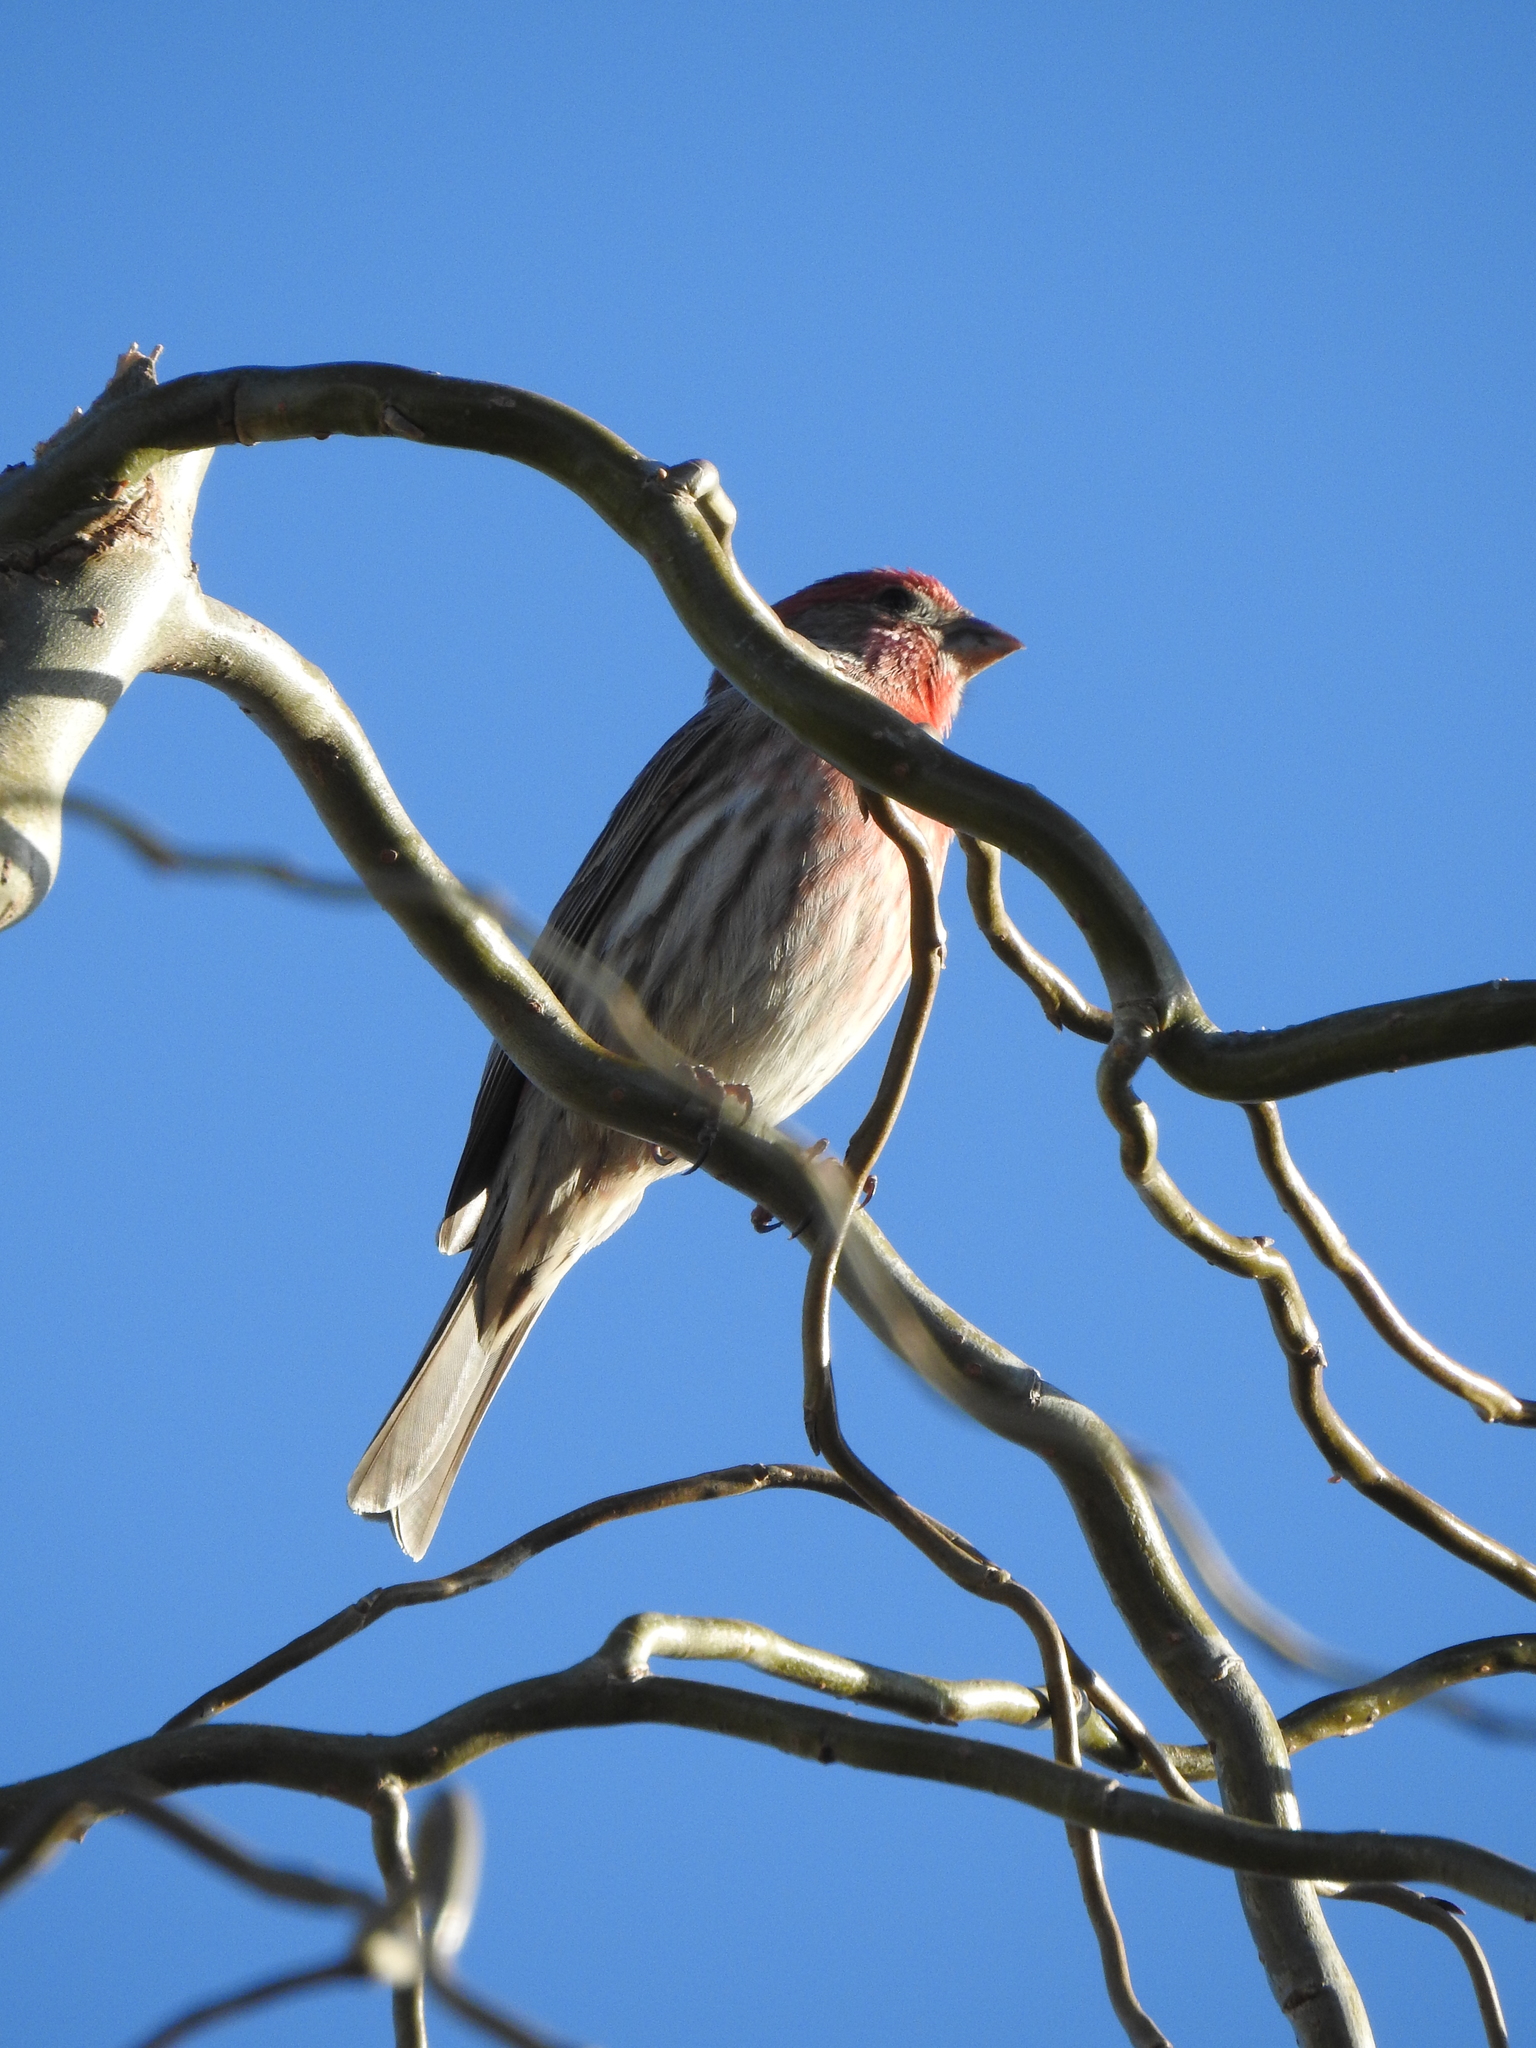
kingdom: Animalia
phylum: Chordata
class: Aves
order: Passeriformes
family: Fringillidae
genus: Haemorhous
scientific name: Haemorhous mexicanus
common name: House finch
